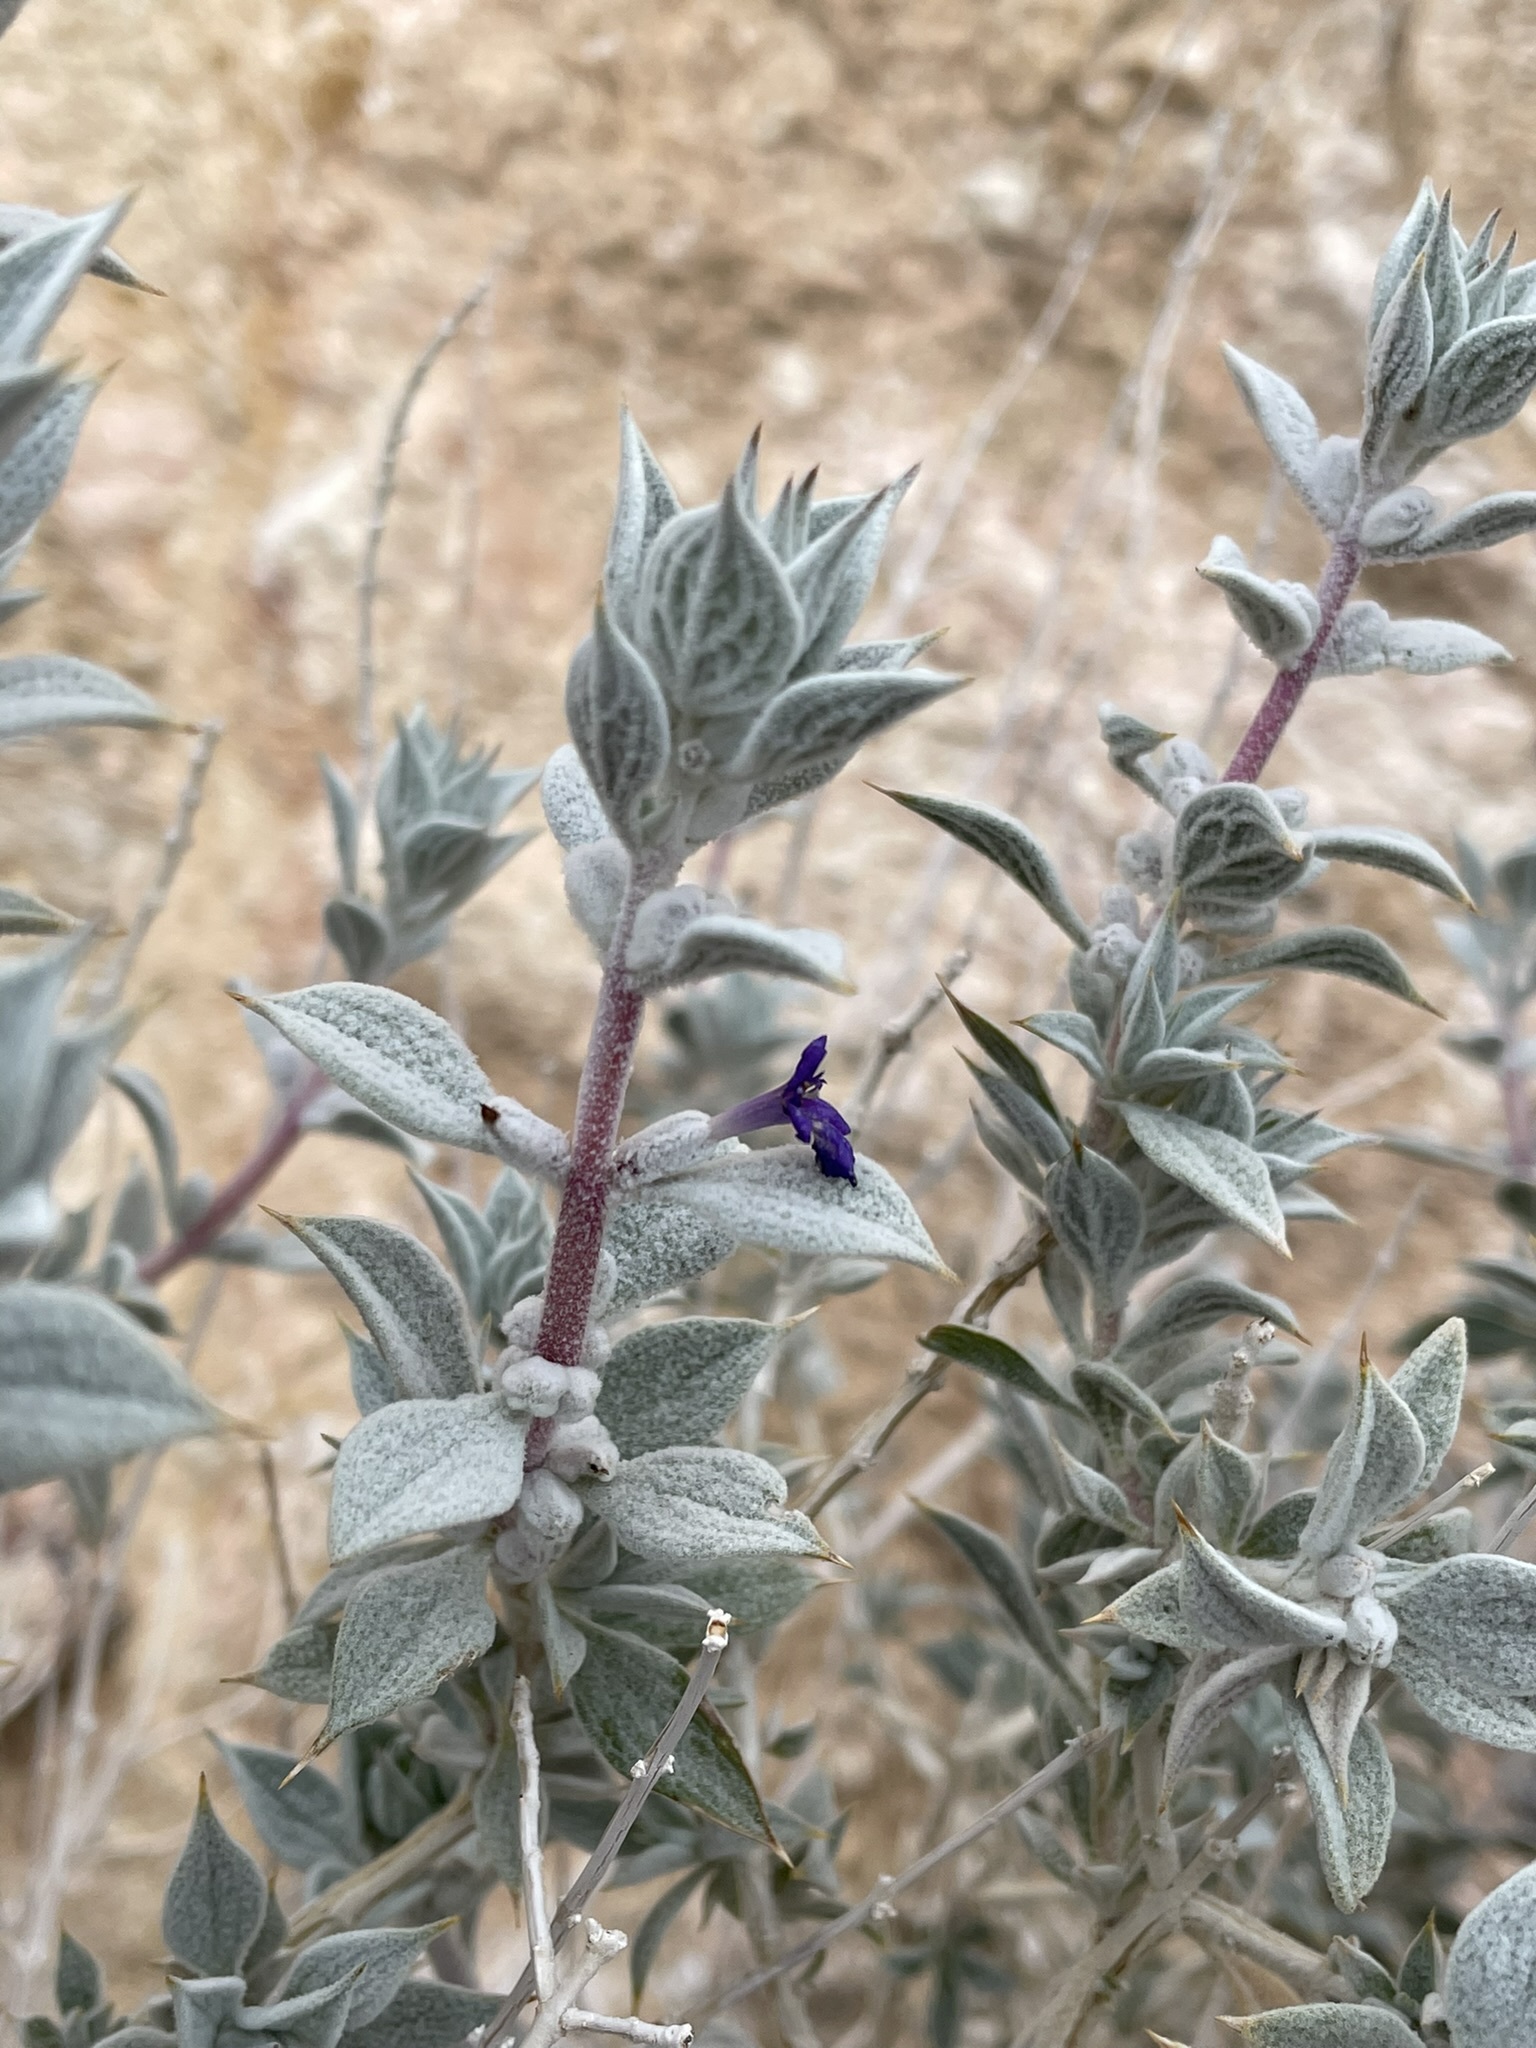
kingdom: Plantae
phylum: Tracheophyta
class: Magnoliopsida
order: Lamiales
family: Lamiaceae
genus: Salvia
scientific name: Salvia funerea
